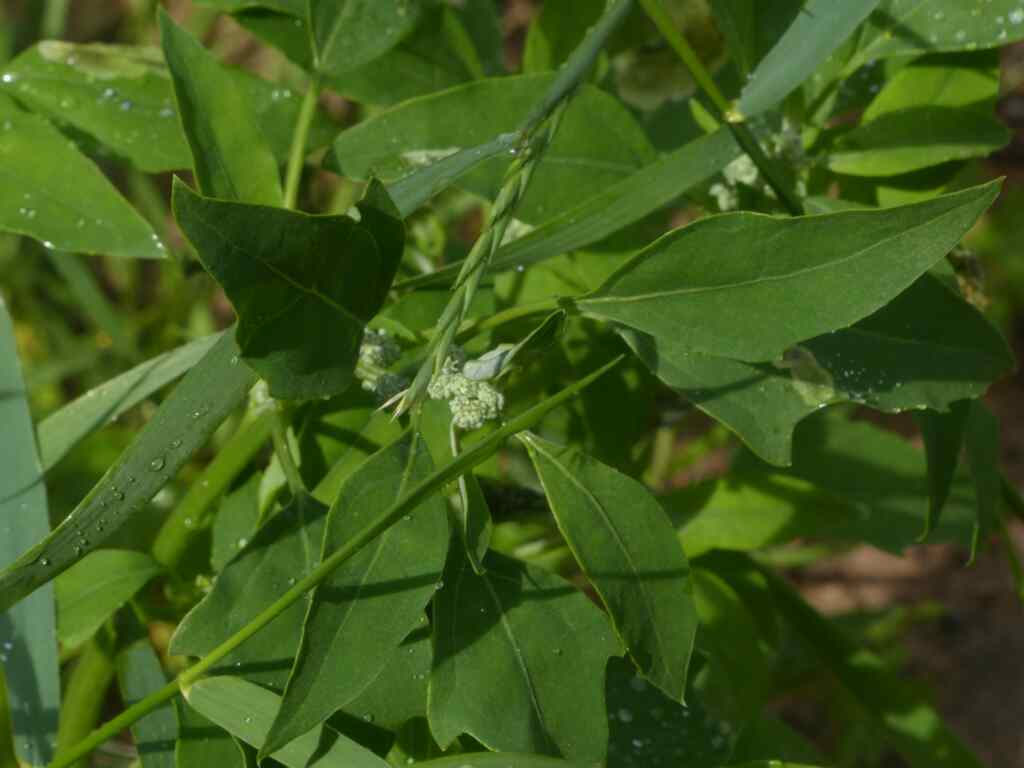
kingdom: Plantae
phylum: Tracheophyta
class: Magnoliopsida
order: Caryophyllales
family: Amaranthaceae
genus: Chenopodium
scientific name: Chenopodium album
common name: Fat-hen
